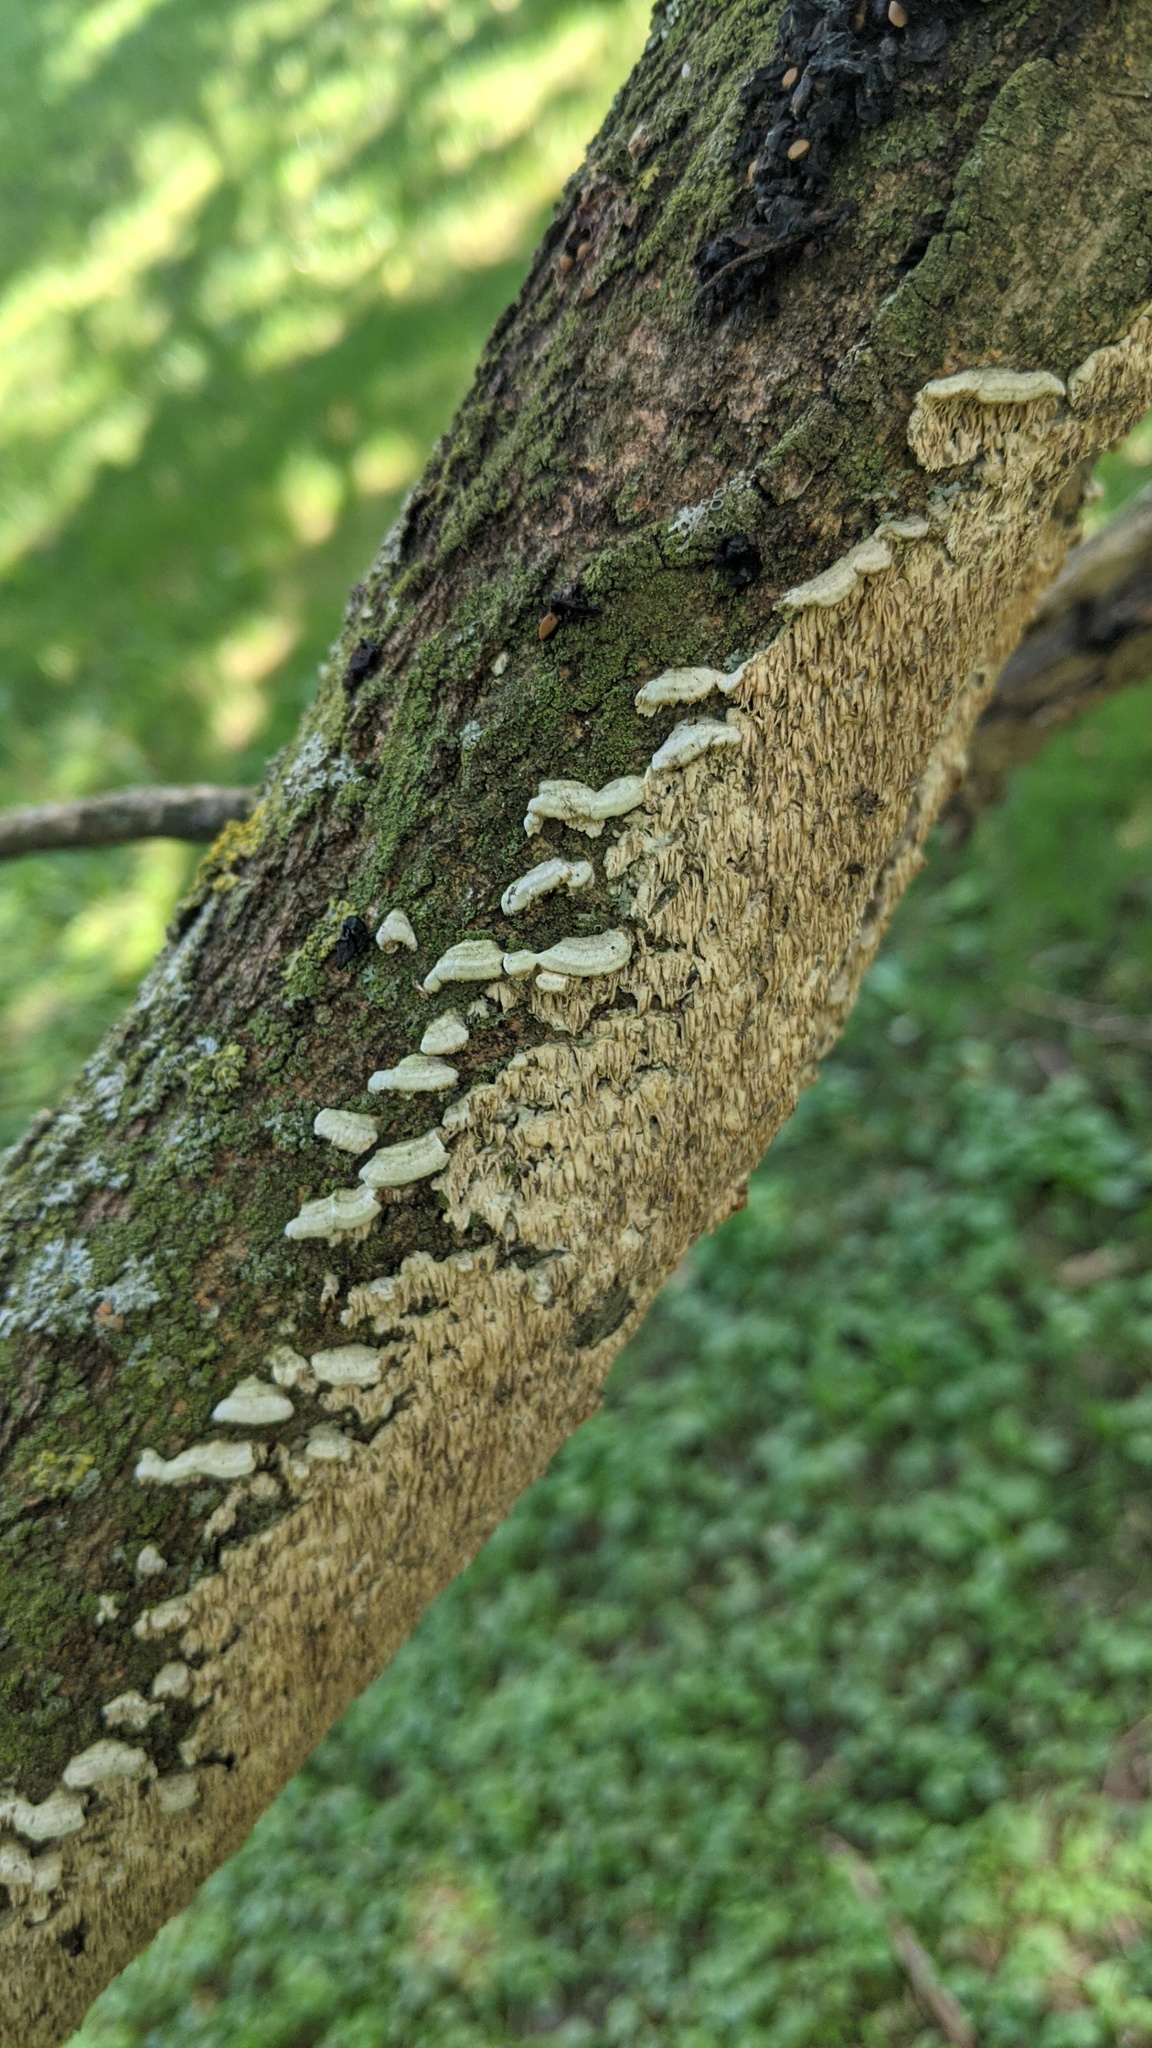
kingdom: Fungi
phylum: Basidiomycota
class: Agaricomycetes
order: Polyporales
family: Irpicaceae
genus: Irpex
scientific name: Irpex lacteus
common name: Milk-white toothed polypore
